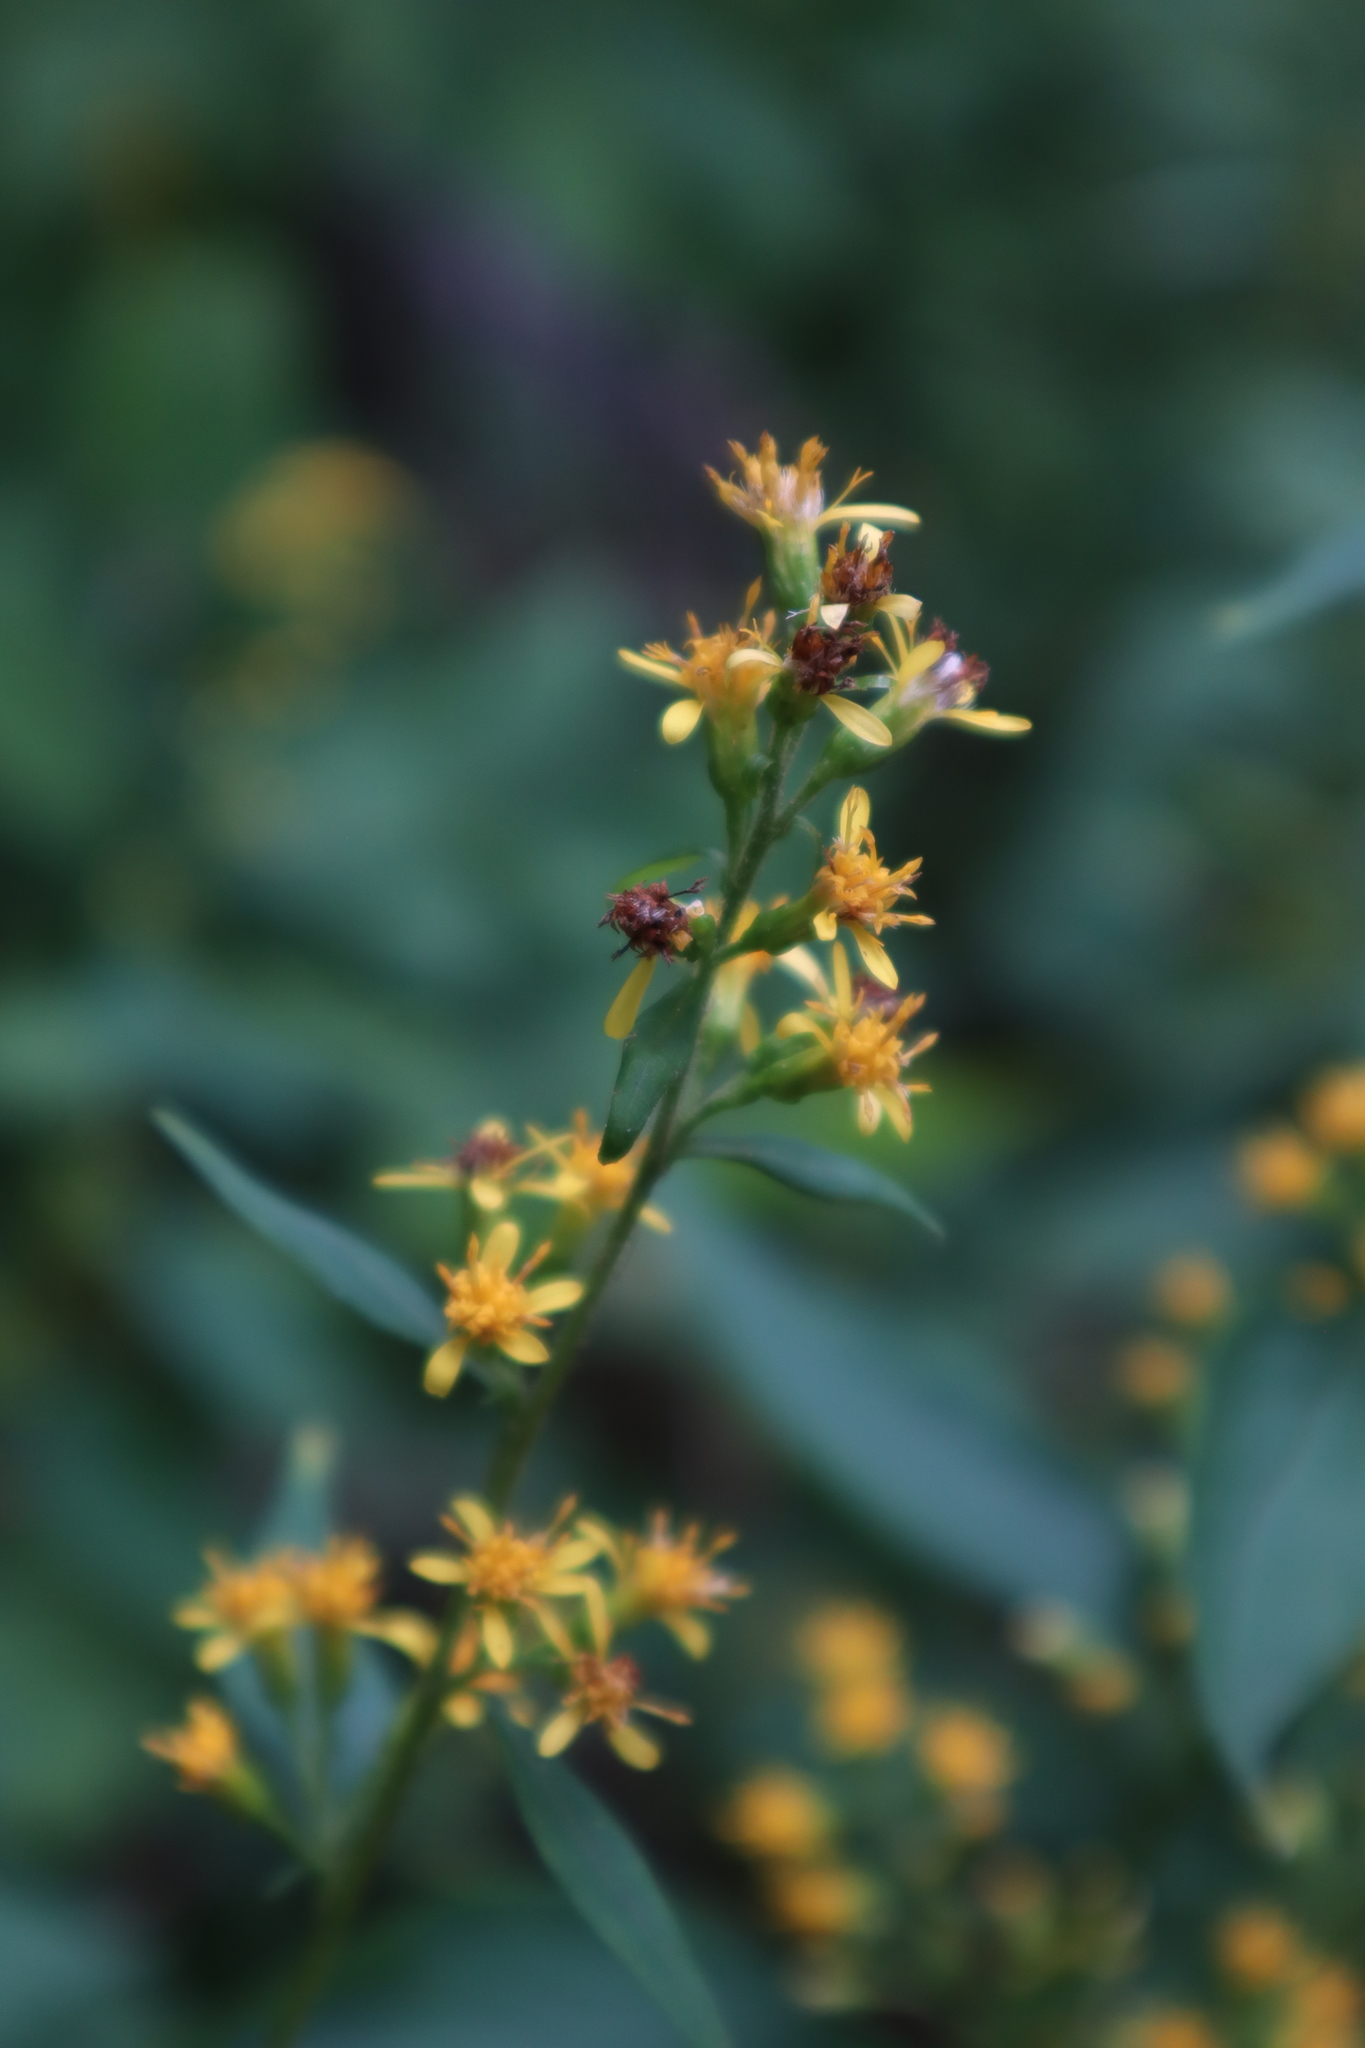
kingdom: Plantae
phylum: Tracheophyta
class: Magnoliopsida
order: Asterales
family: Asteraceae
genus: Solidago
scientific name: Solidago flexicaulis
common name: Zig-zag goldenrod
